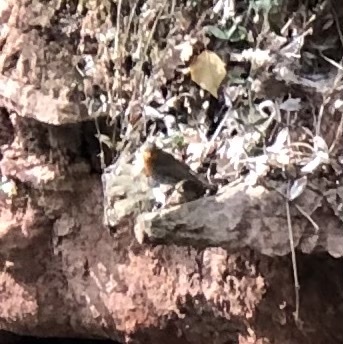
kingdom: Animalia
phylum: Chordata
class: Aves
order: Passeriformes
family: Muscicapidae
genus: Erithacus
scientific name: Erithacus rubecula
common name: European robin
